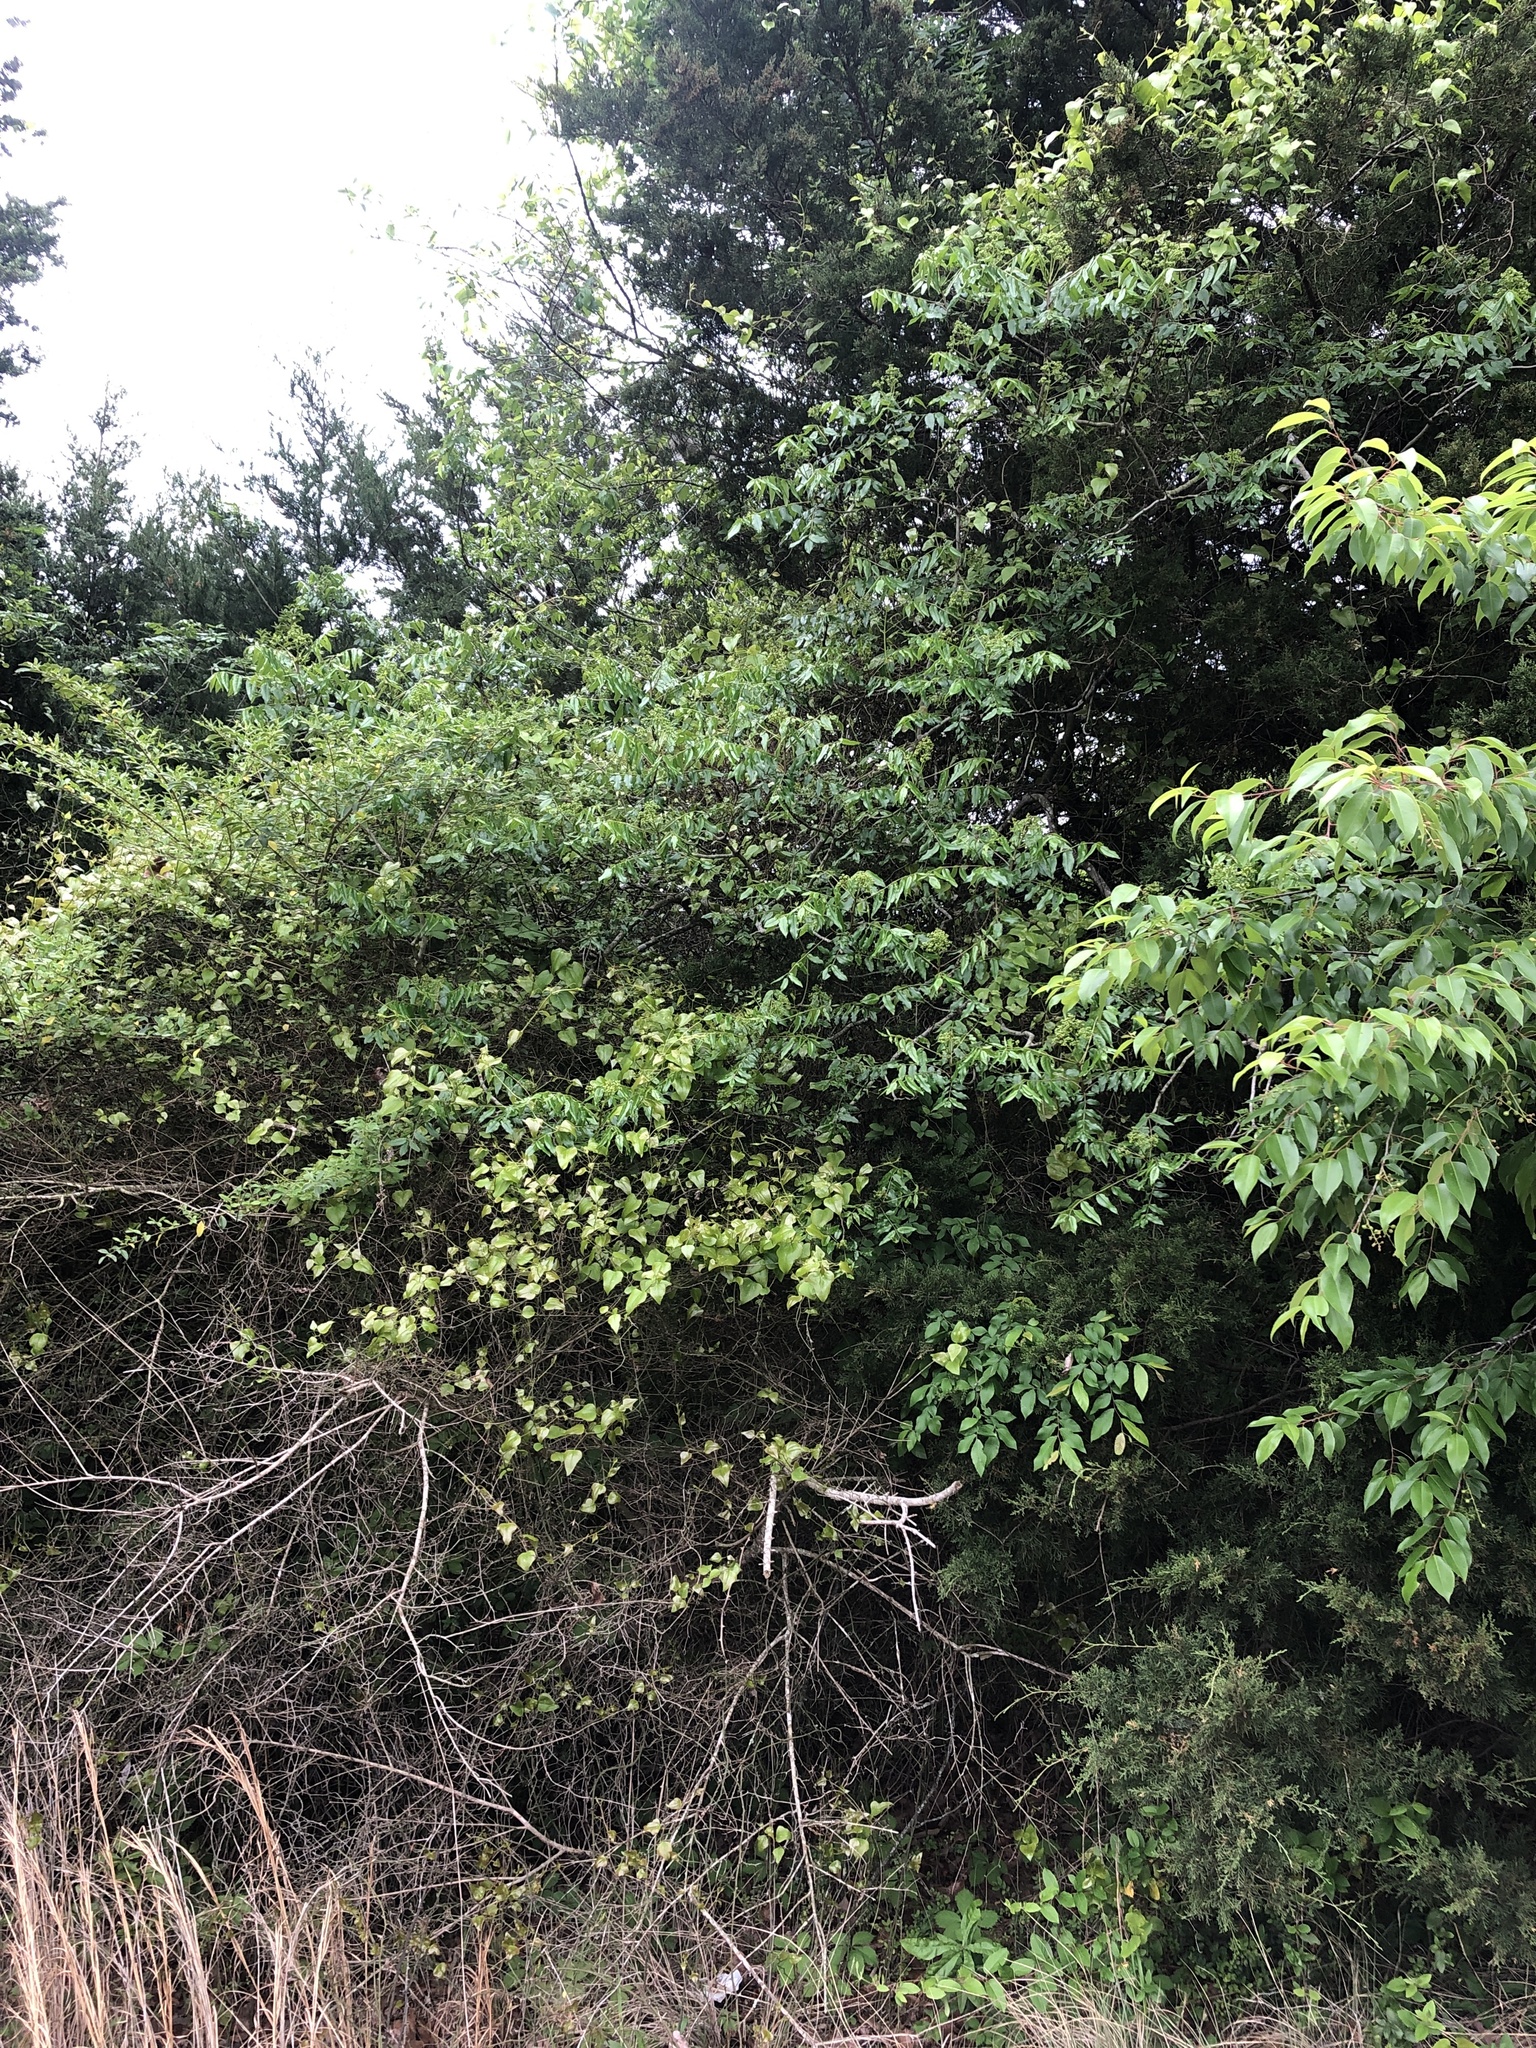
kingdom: Animalia
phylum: Chordata
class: Aves
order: Passeriformes
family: Vireonidae
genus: Vireo
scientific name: Vireo griseus
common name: White-eyed vireo
